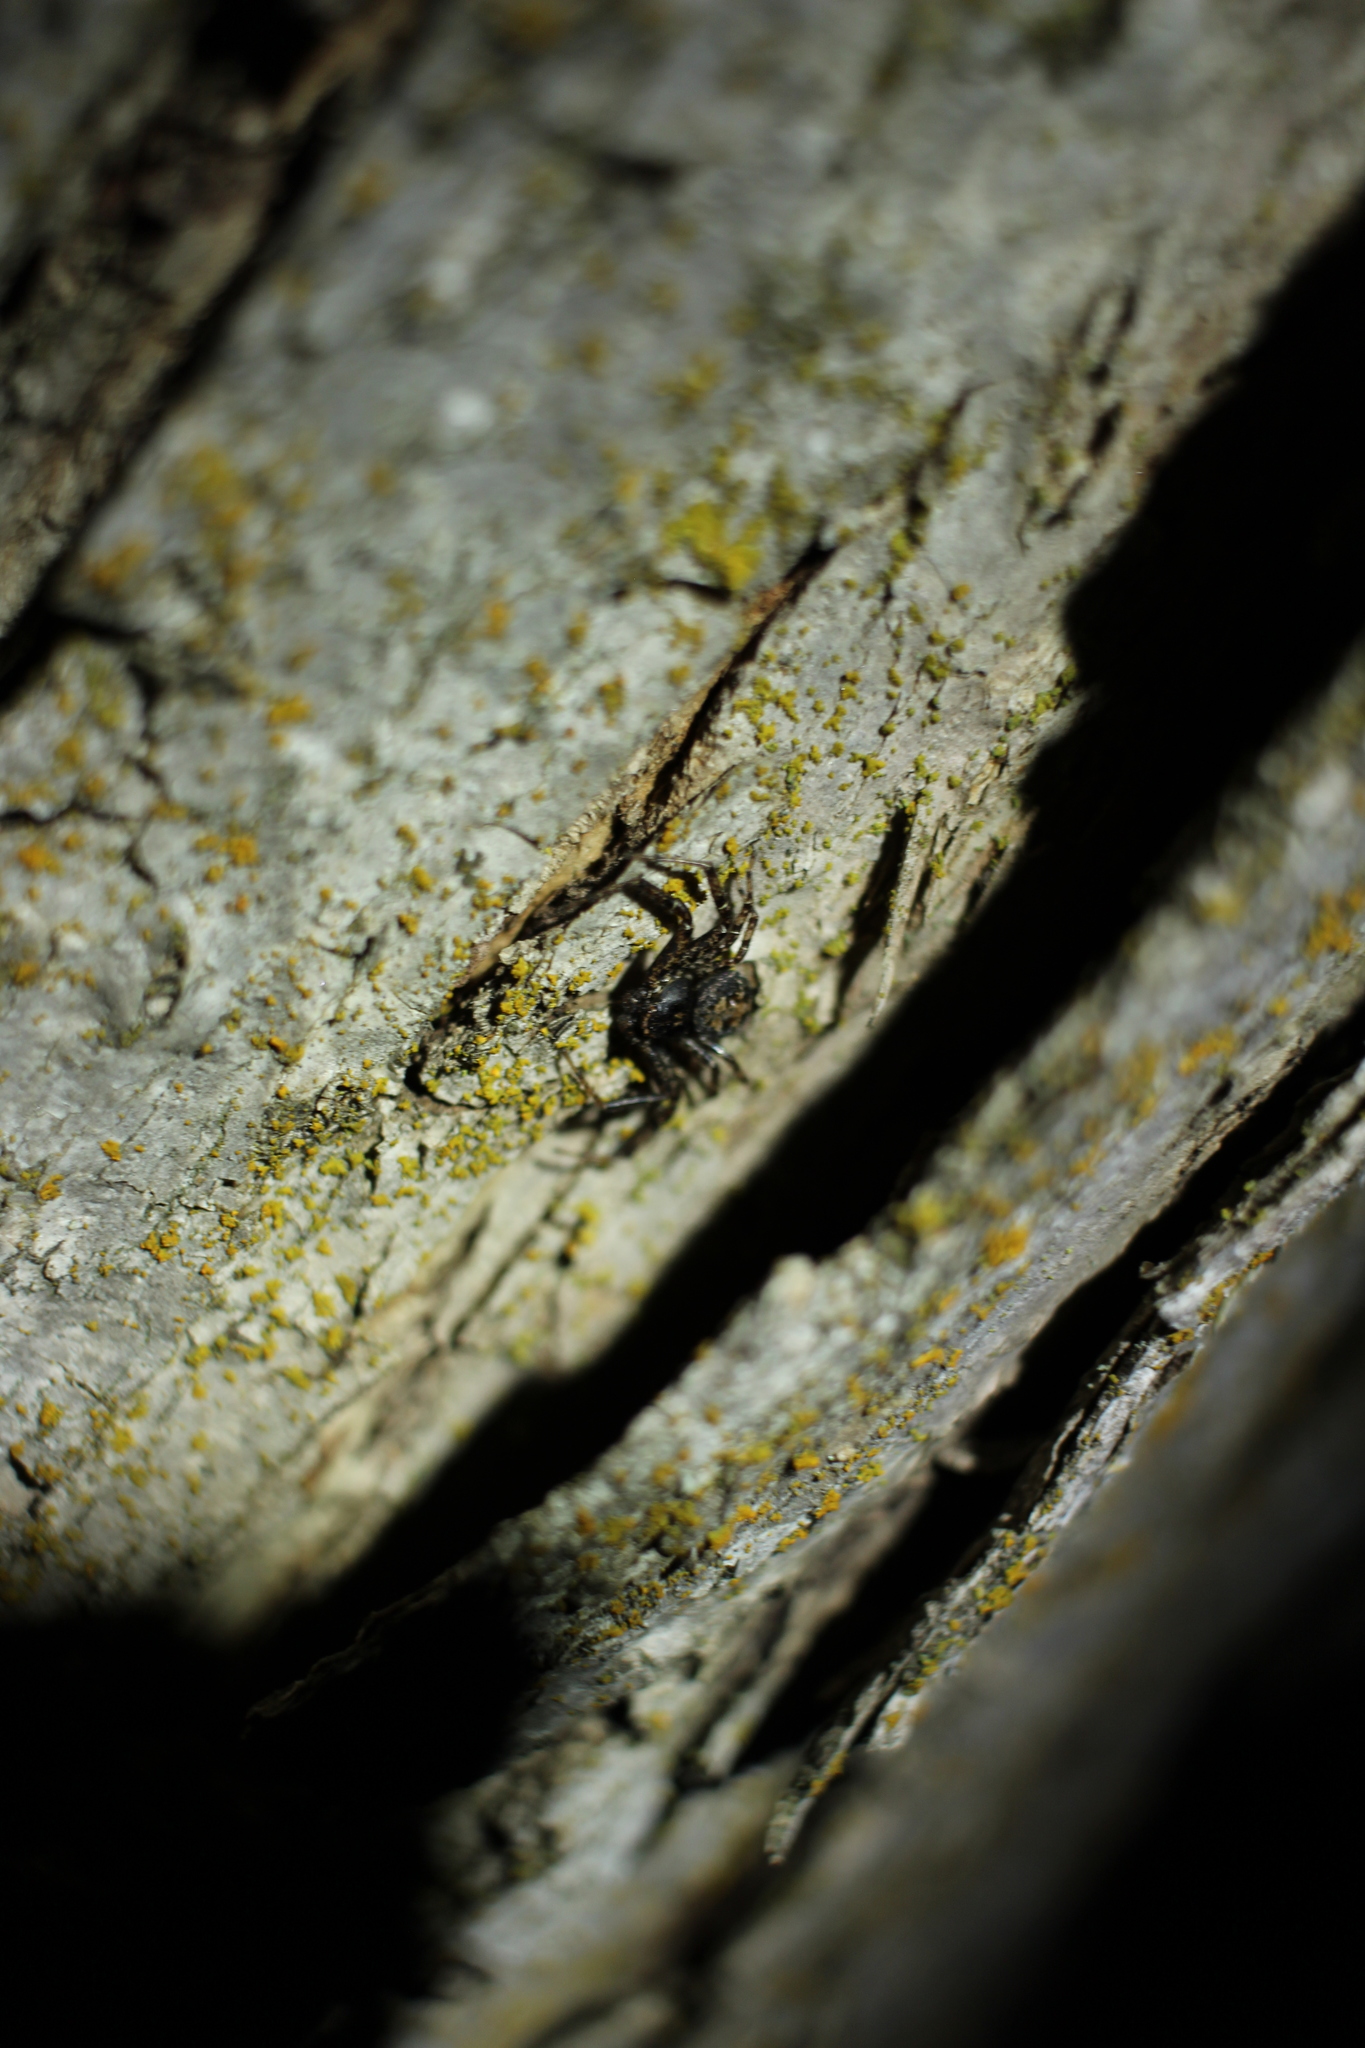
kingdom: Animalia
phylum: Arthropoda
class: Arachnida
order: Araneae
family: Thomisidae
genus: Bassaniana
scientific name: Bassaniana utahensis
